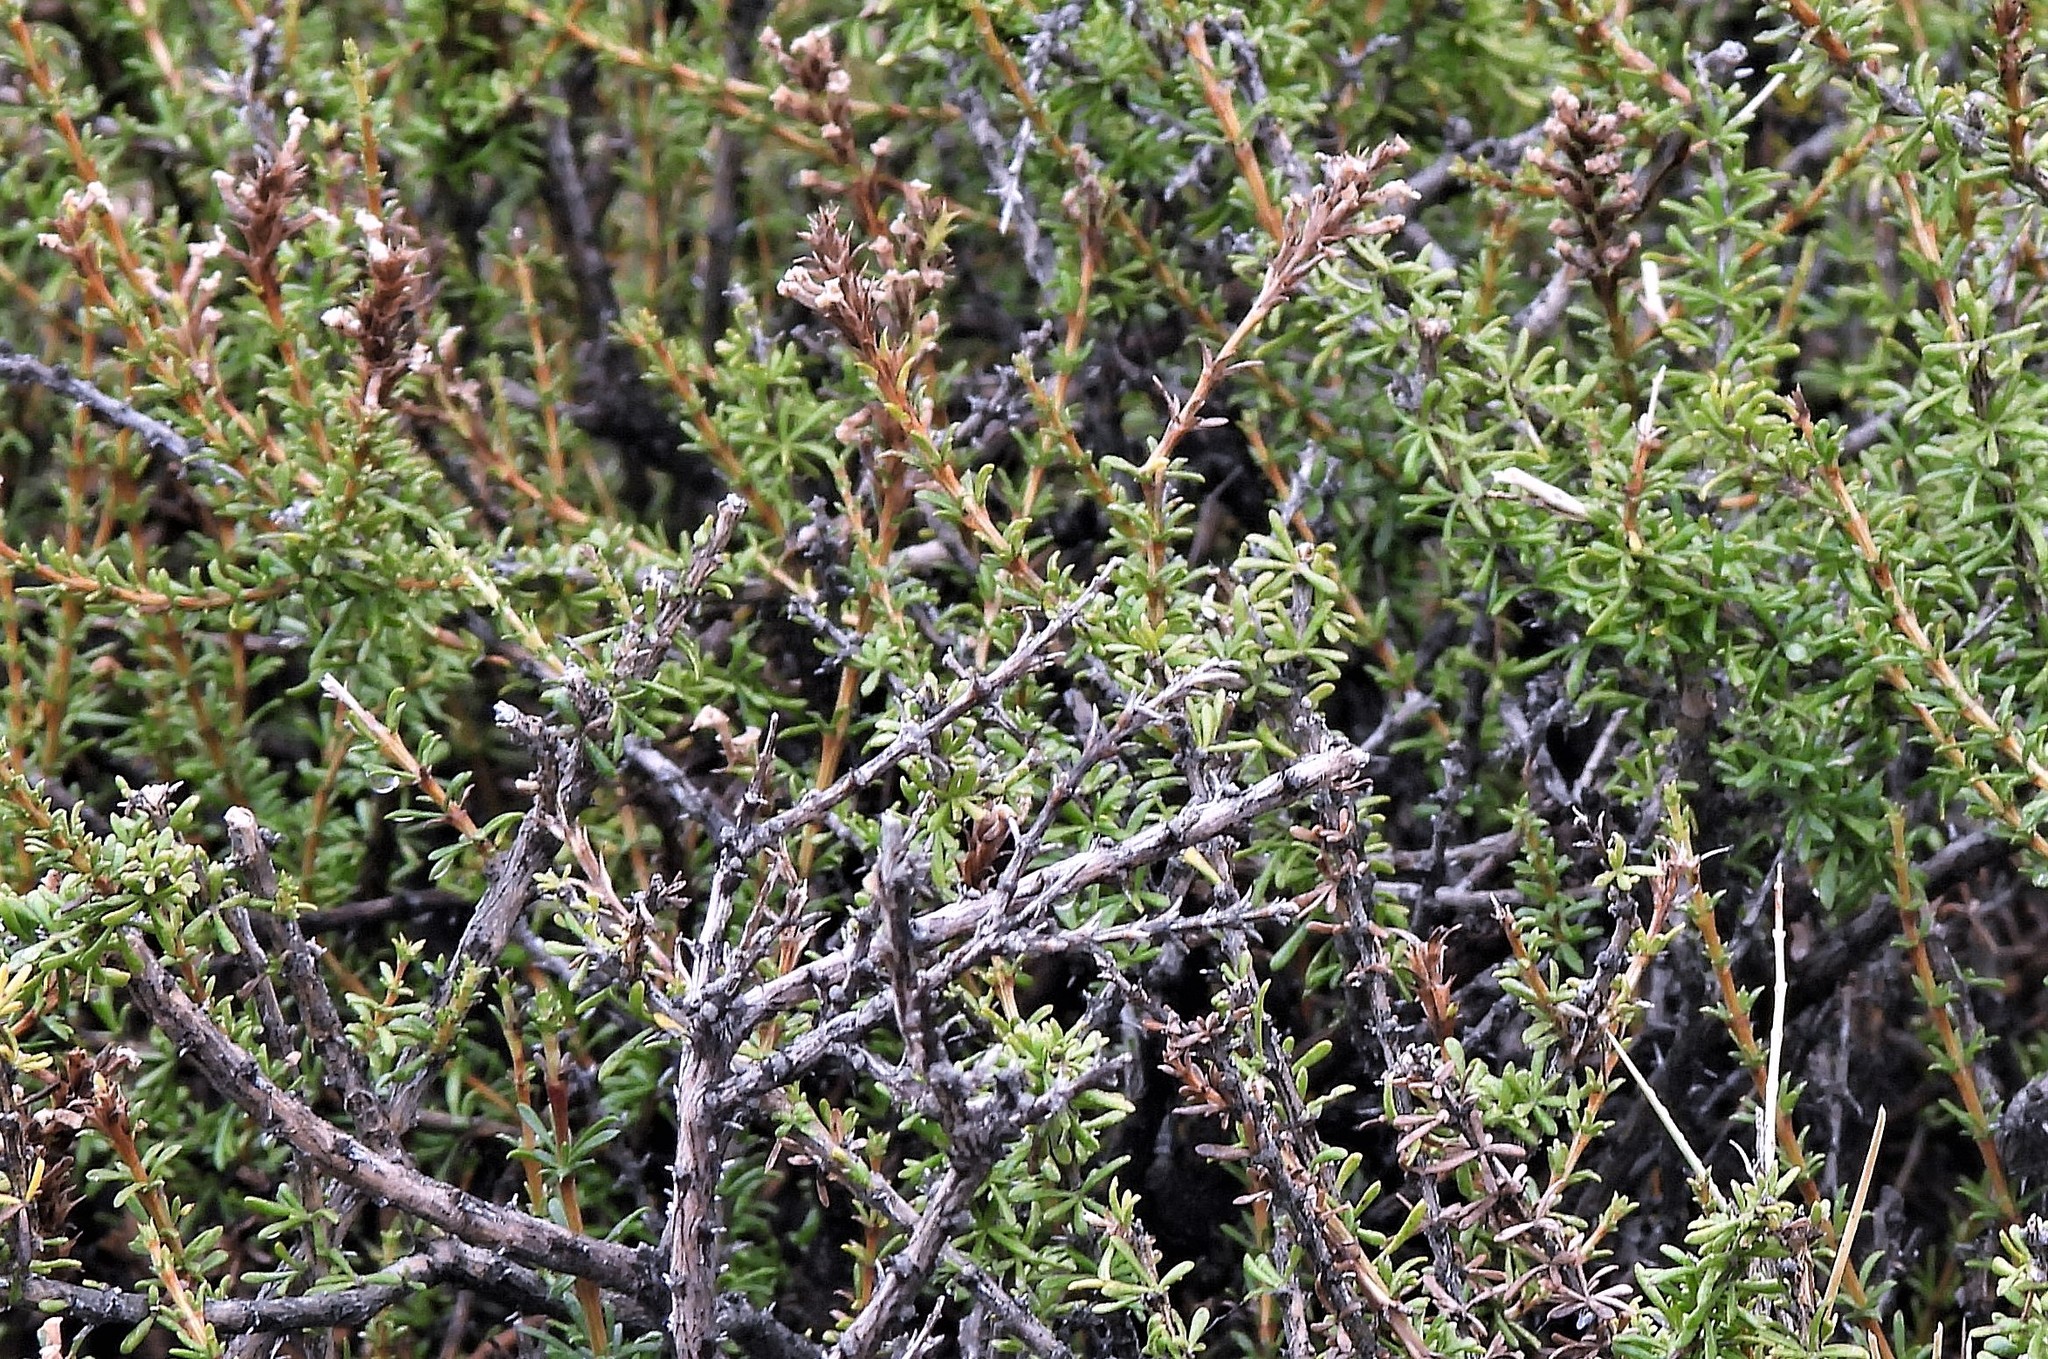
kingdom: Plantae
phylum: Tracheophyta
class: Magnoliopsida
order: Lamiales
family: Verbenaceae
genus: Mulguraea
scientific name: Mulguraea asparagoides
